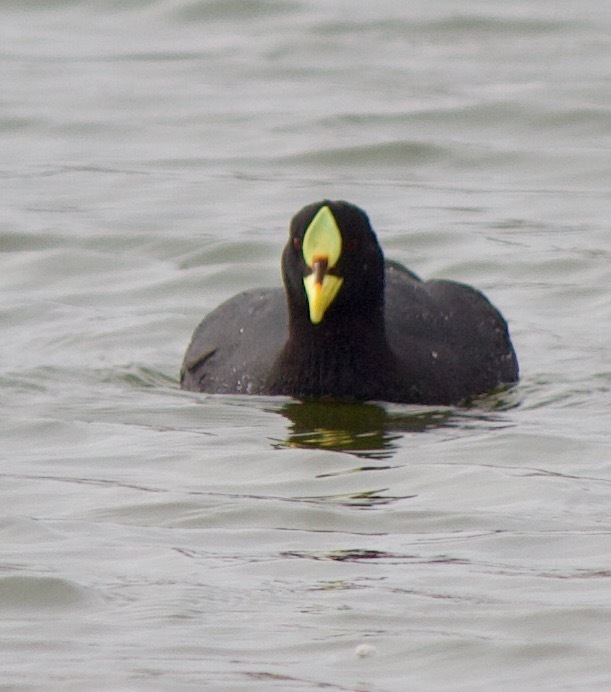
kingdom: Animalia
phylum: Chordata
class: Aves
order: Gruiformes
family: Rallidae
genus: Fulica
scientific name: Fulica armillata
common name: Red-gartered coot
